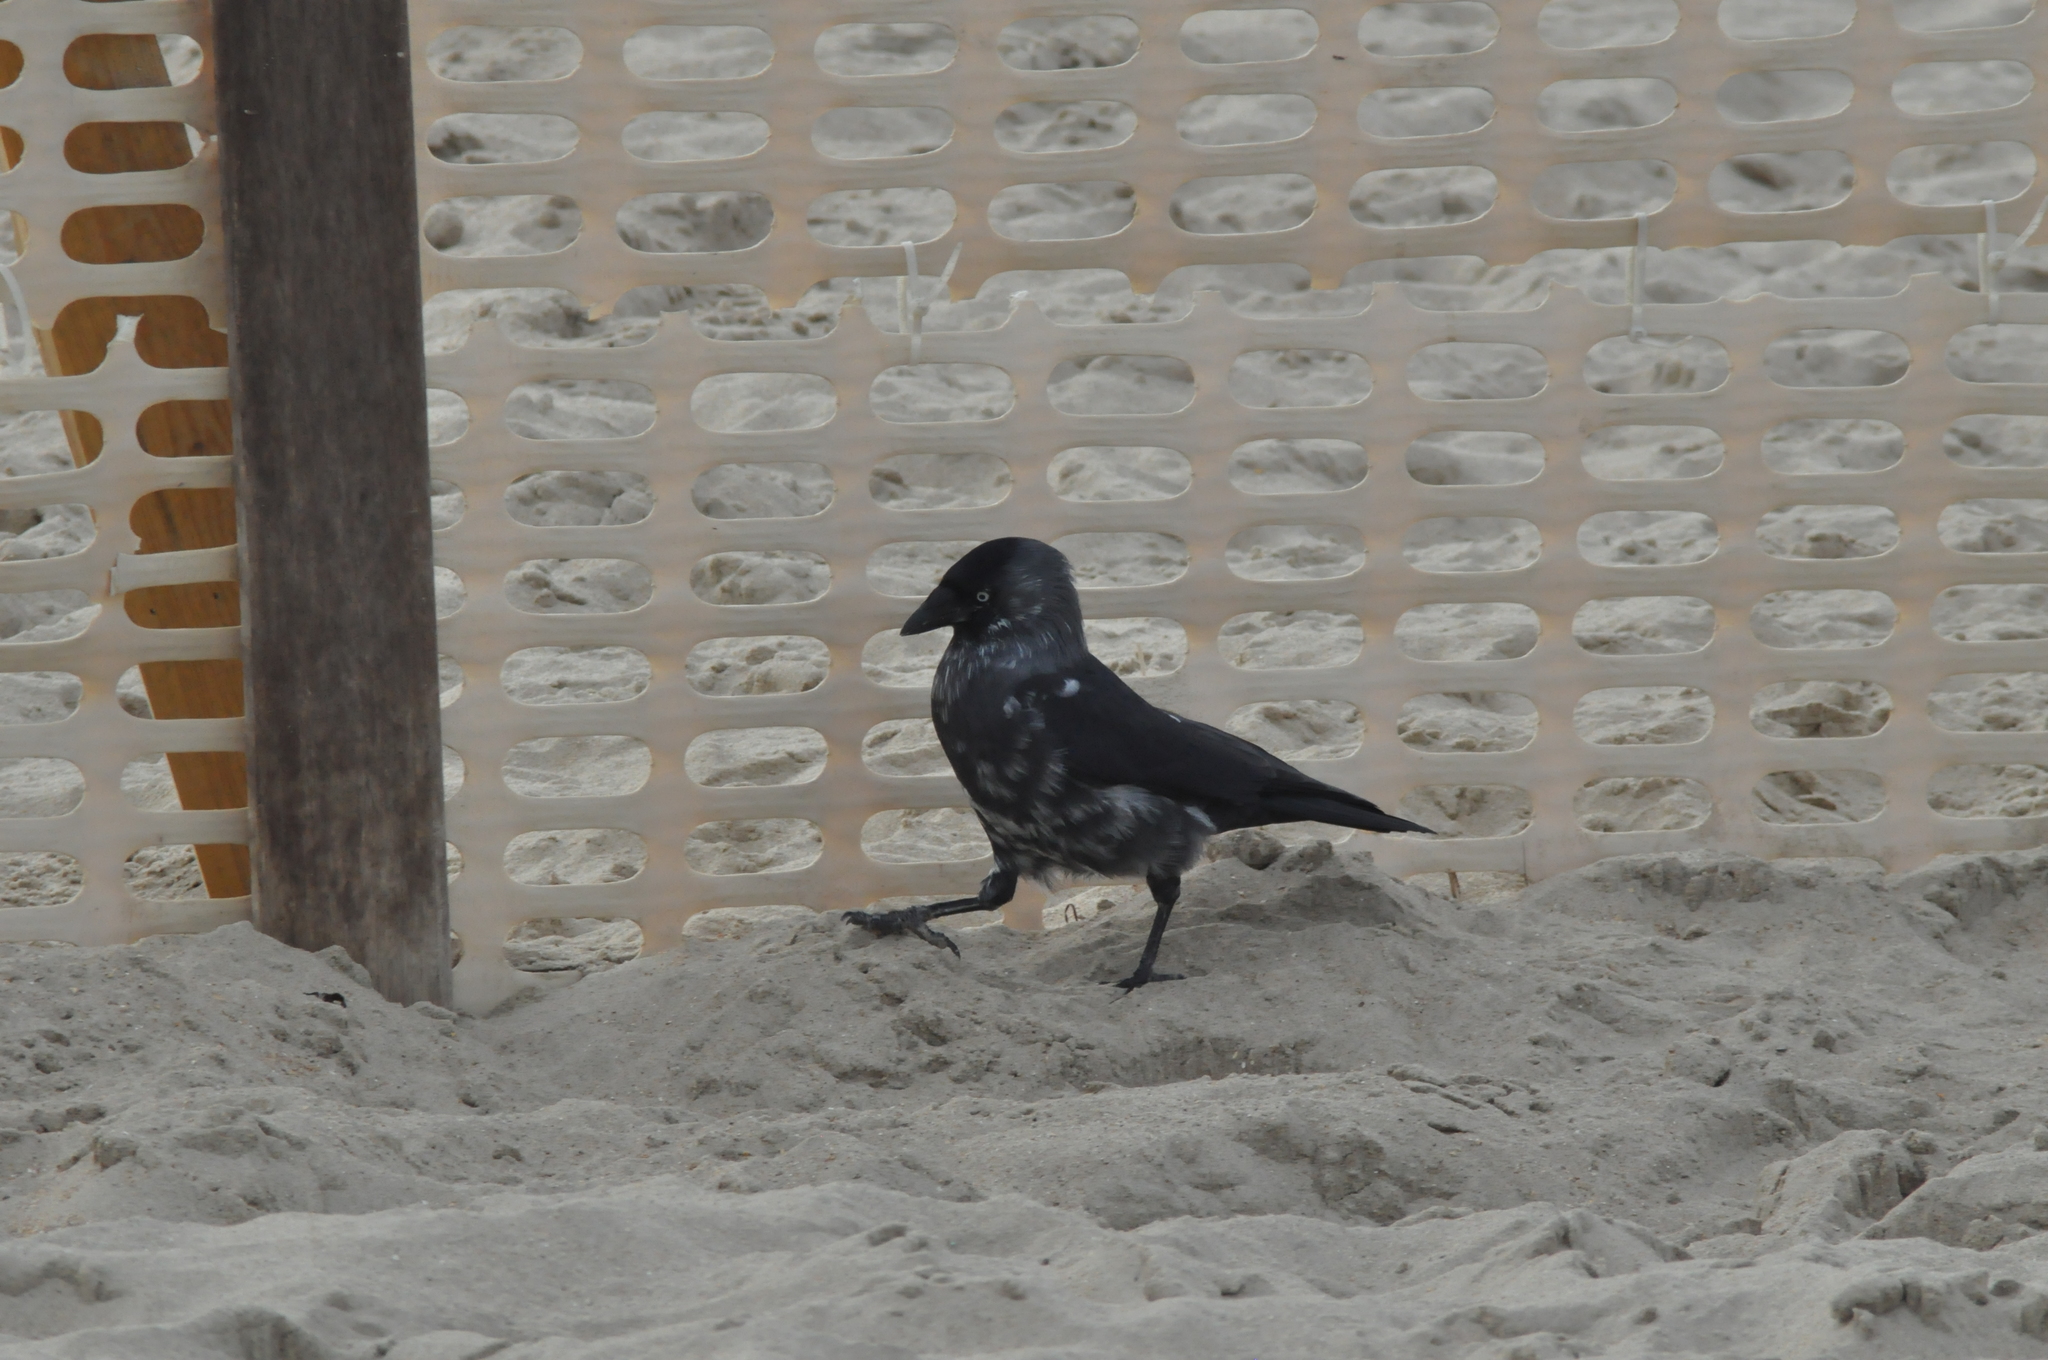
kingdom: Animalia
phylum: Chordata
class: Aves
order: Passeriformes
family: Corvidae
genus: Coloeus
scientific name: Coloeus monedula
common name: Western jackdaw
